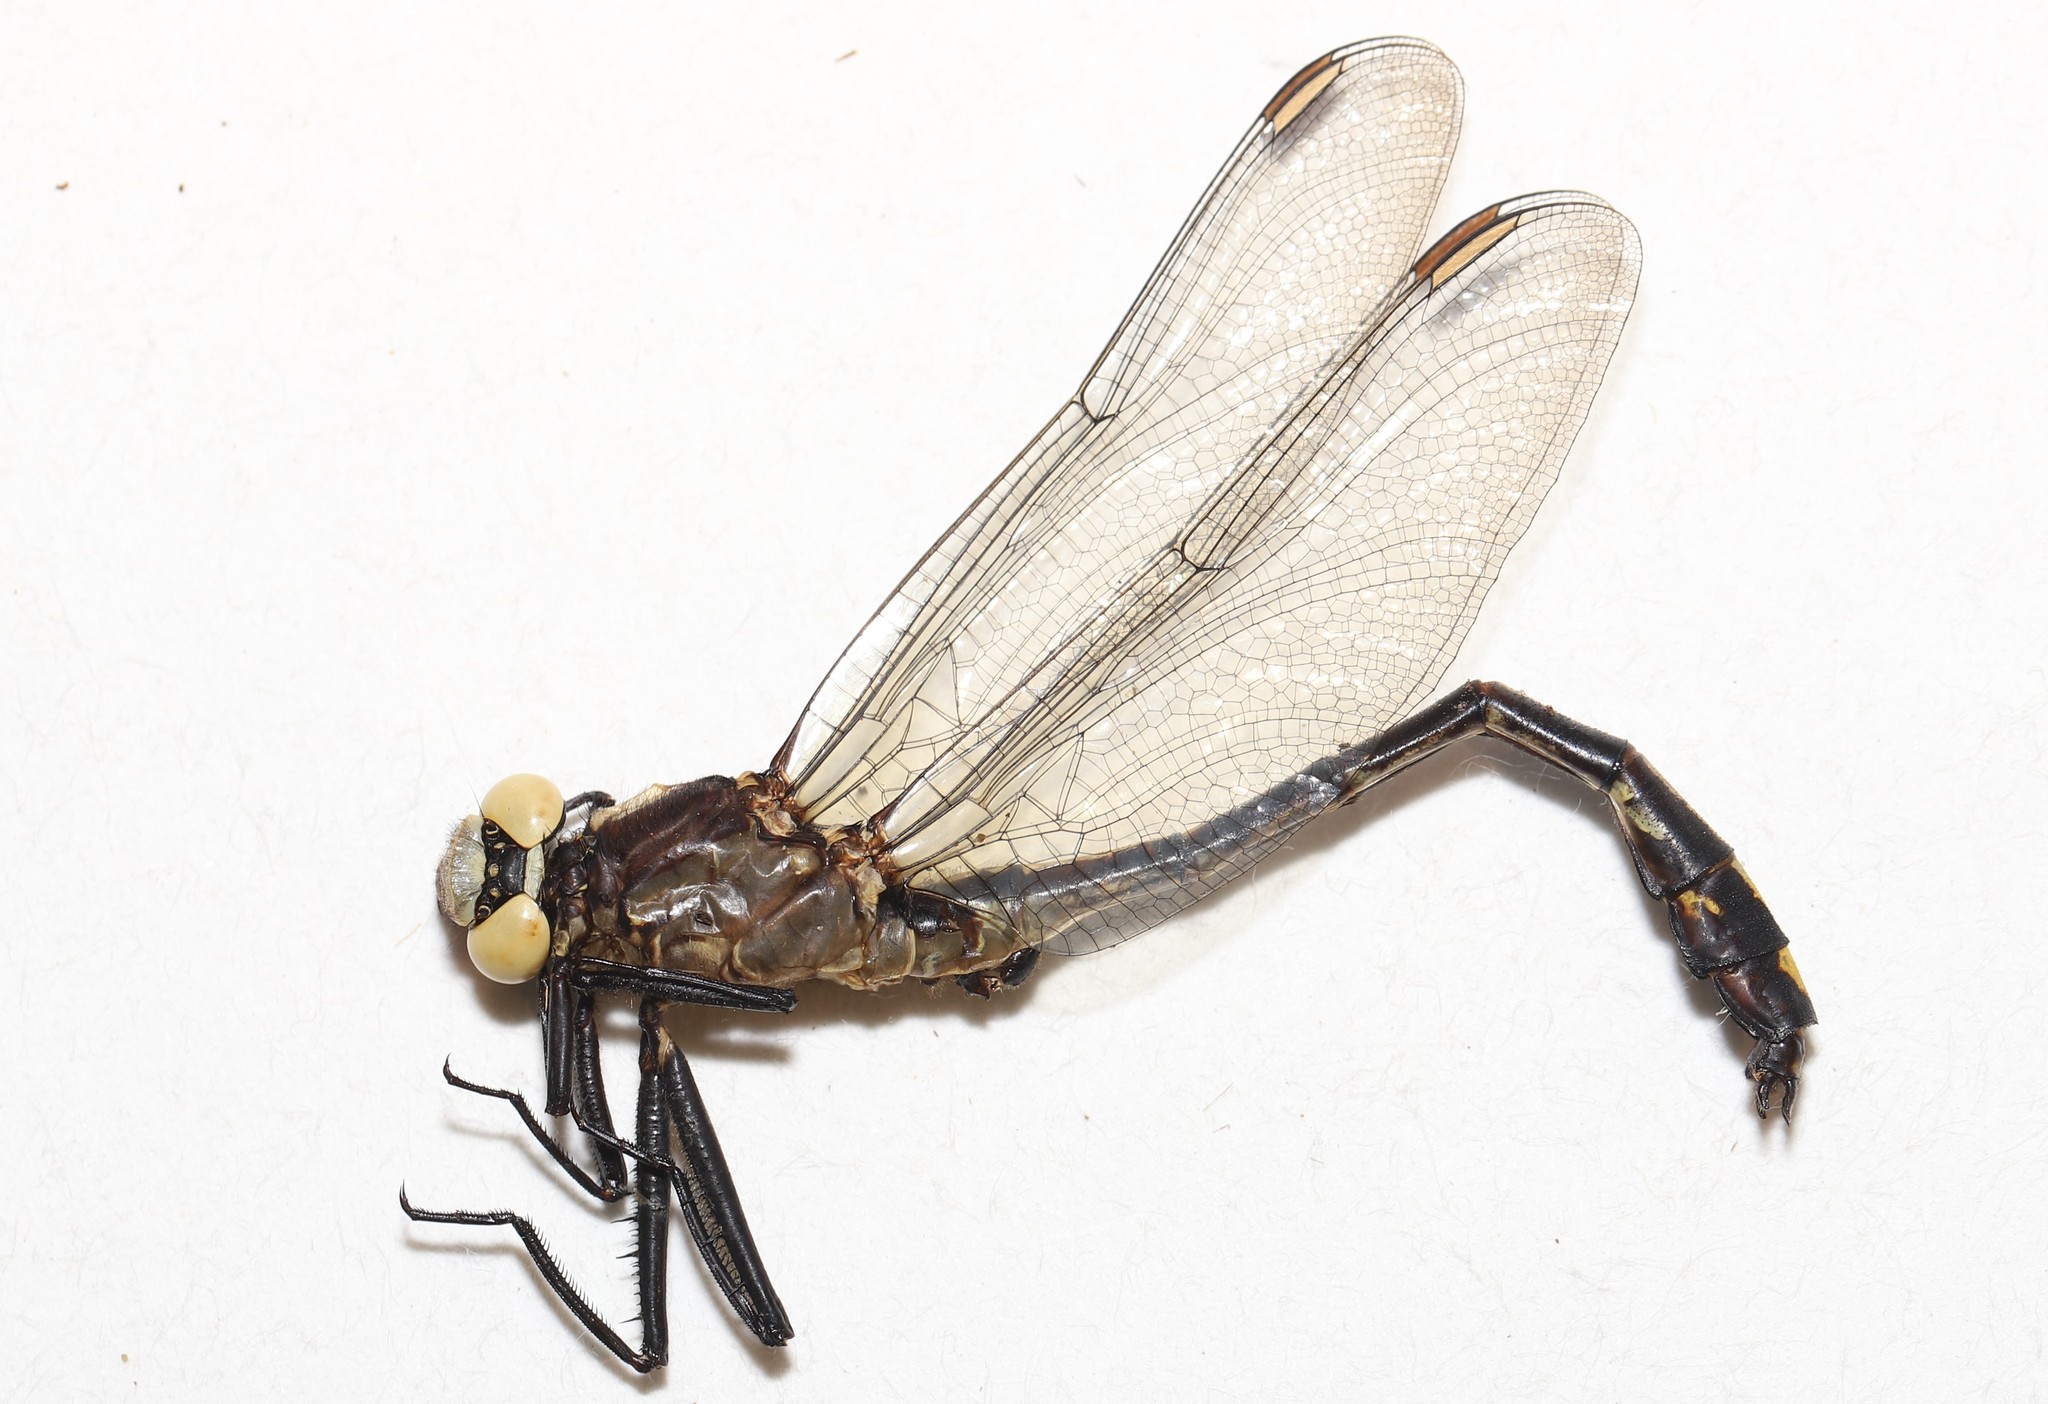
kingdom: Animalia
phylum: Arthropoda
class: Insecta
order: Odonata
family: Gomphidae
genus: Dromogomphus
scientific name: Dromogomphus spinosus
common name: Black-shouldered spinyleg
